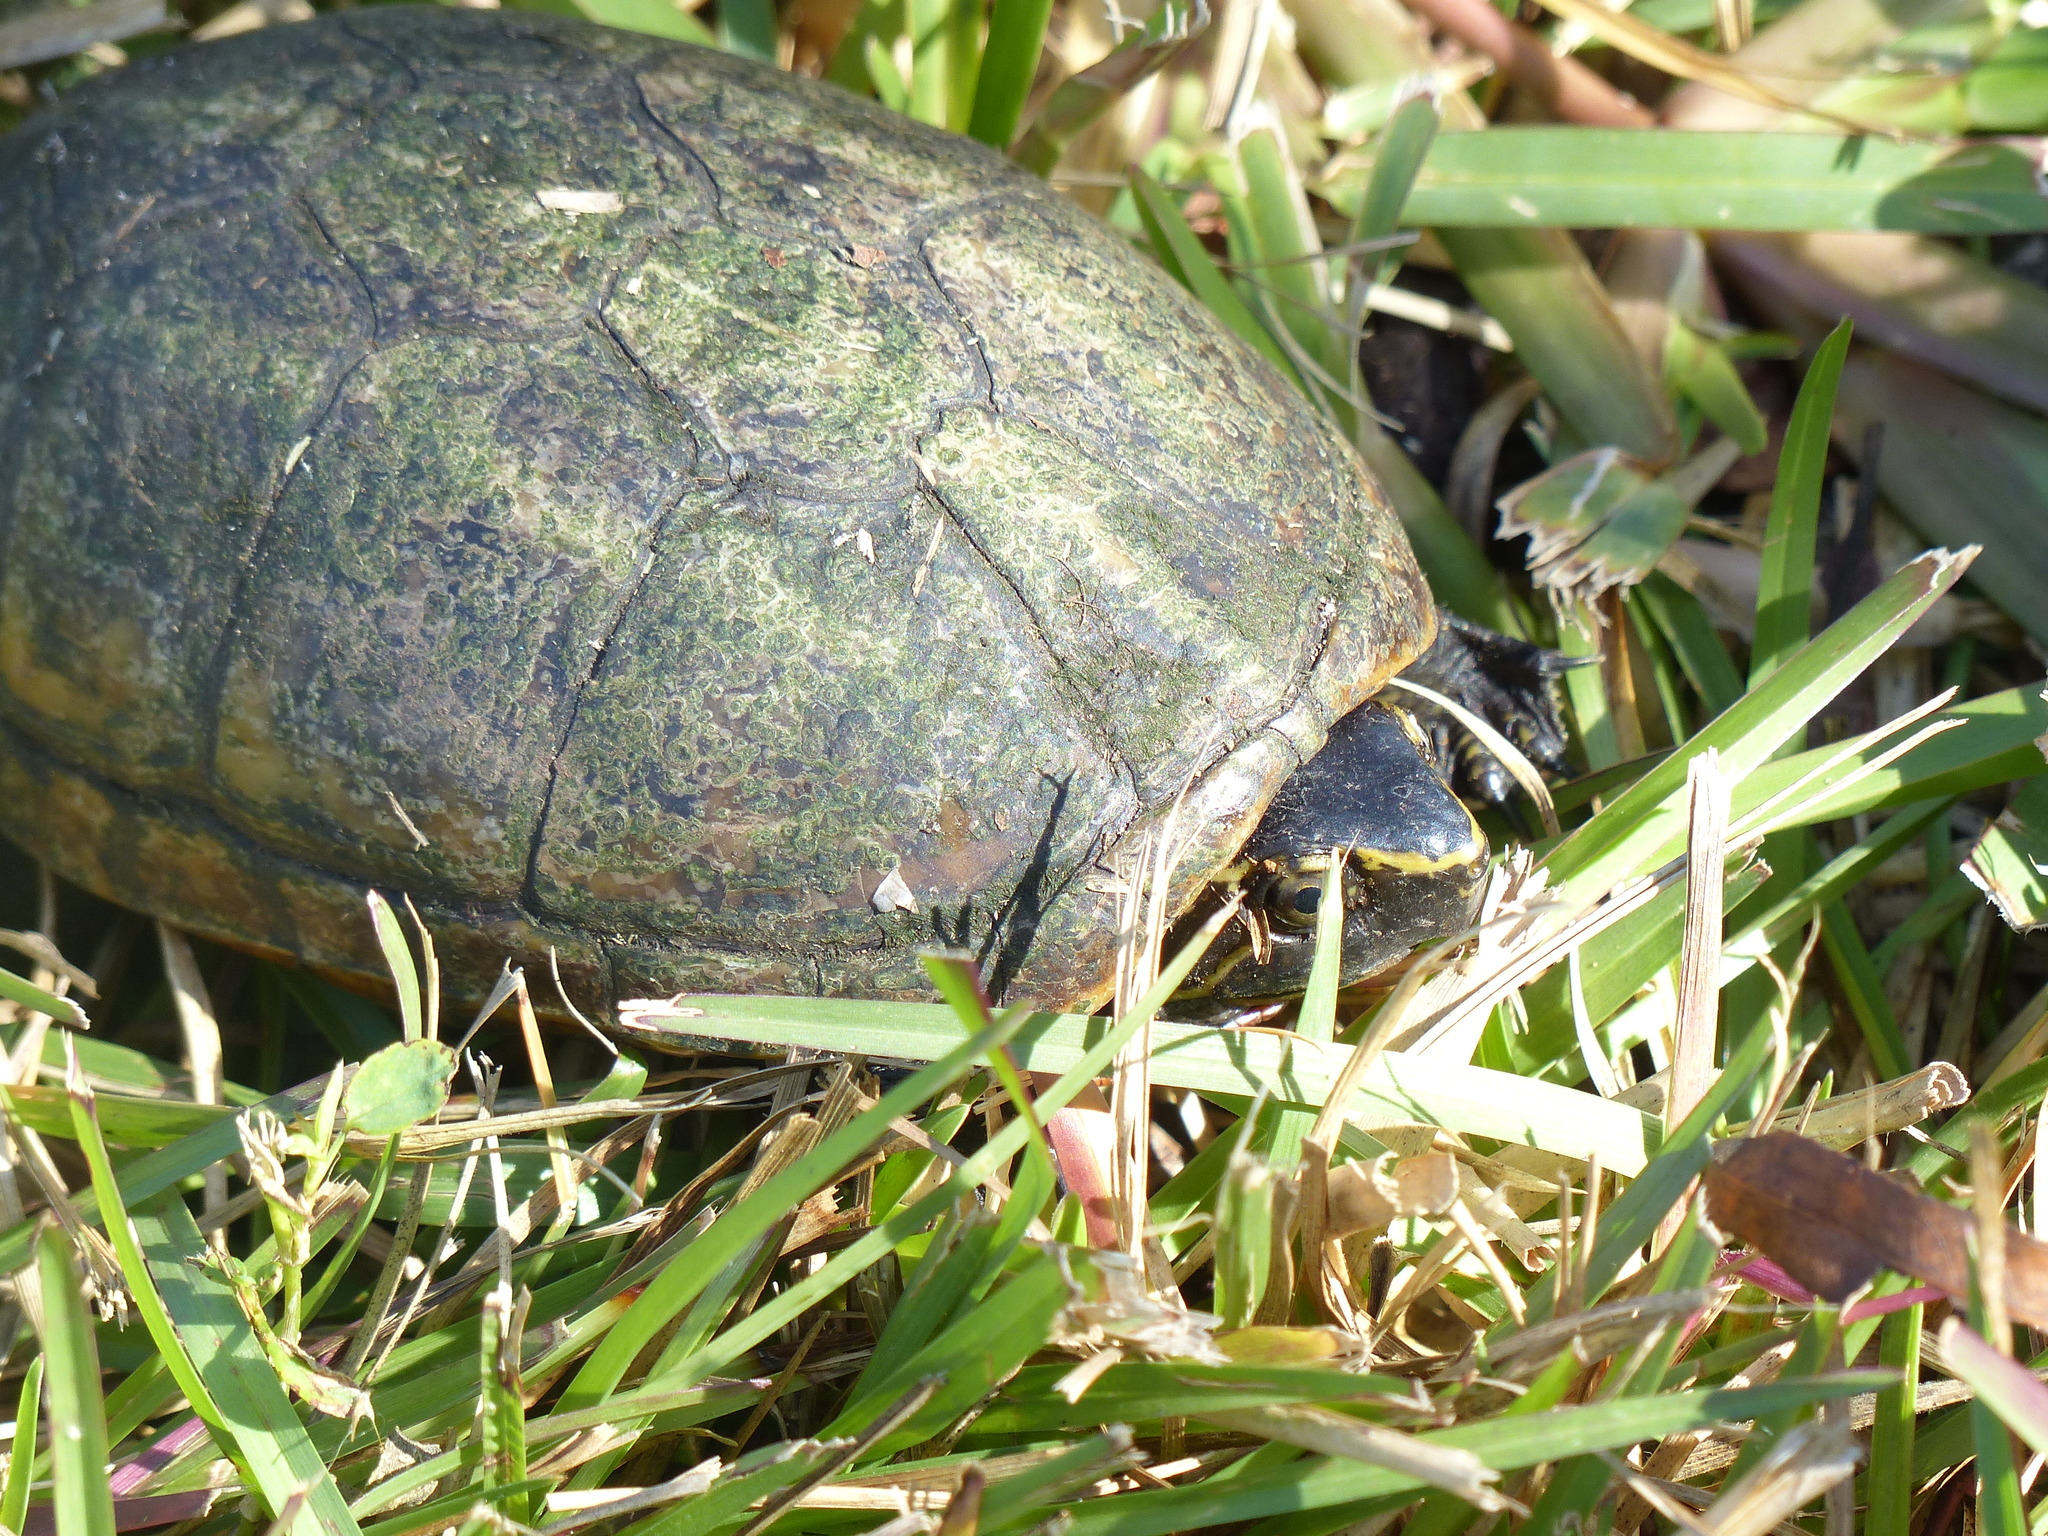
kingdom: Animalia
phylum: Chordata
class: Testudines
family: Kinosternidae
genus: Kinosternon
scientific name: Kinosternon baurii
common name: Striped mud turtle
